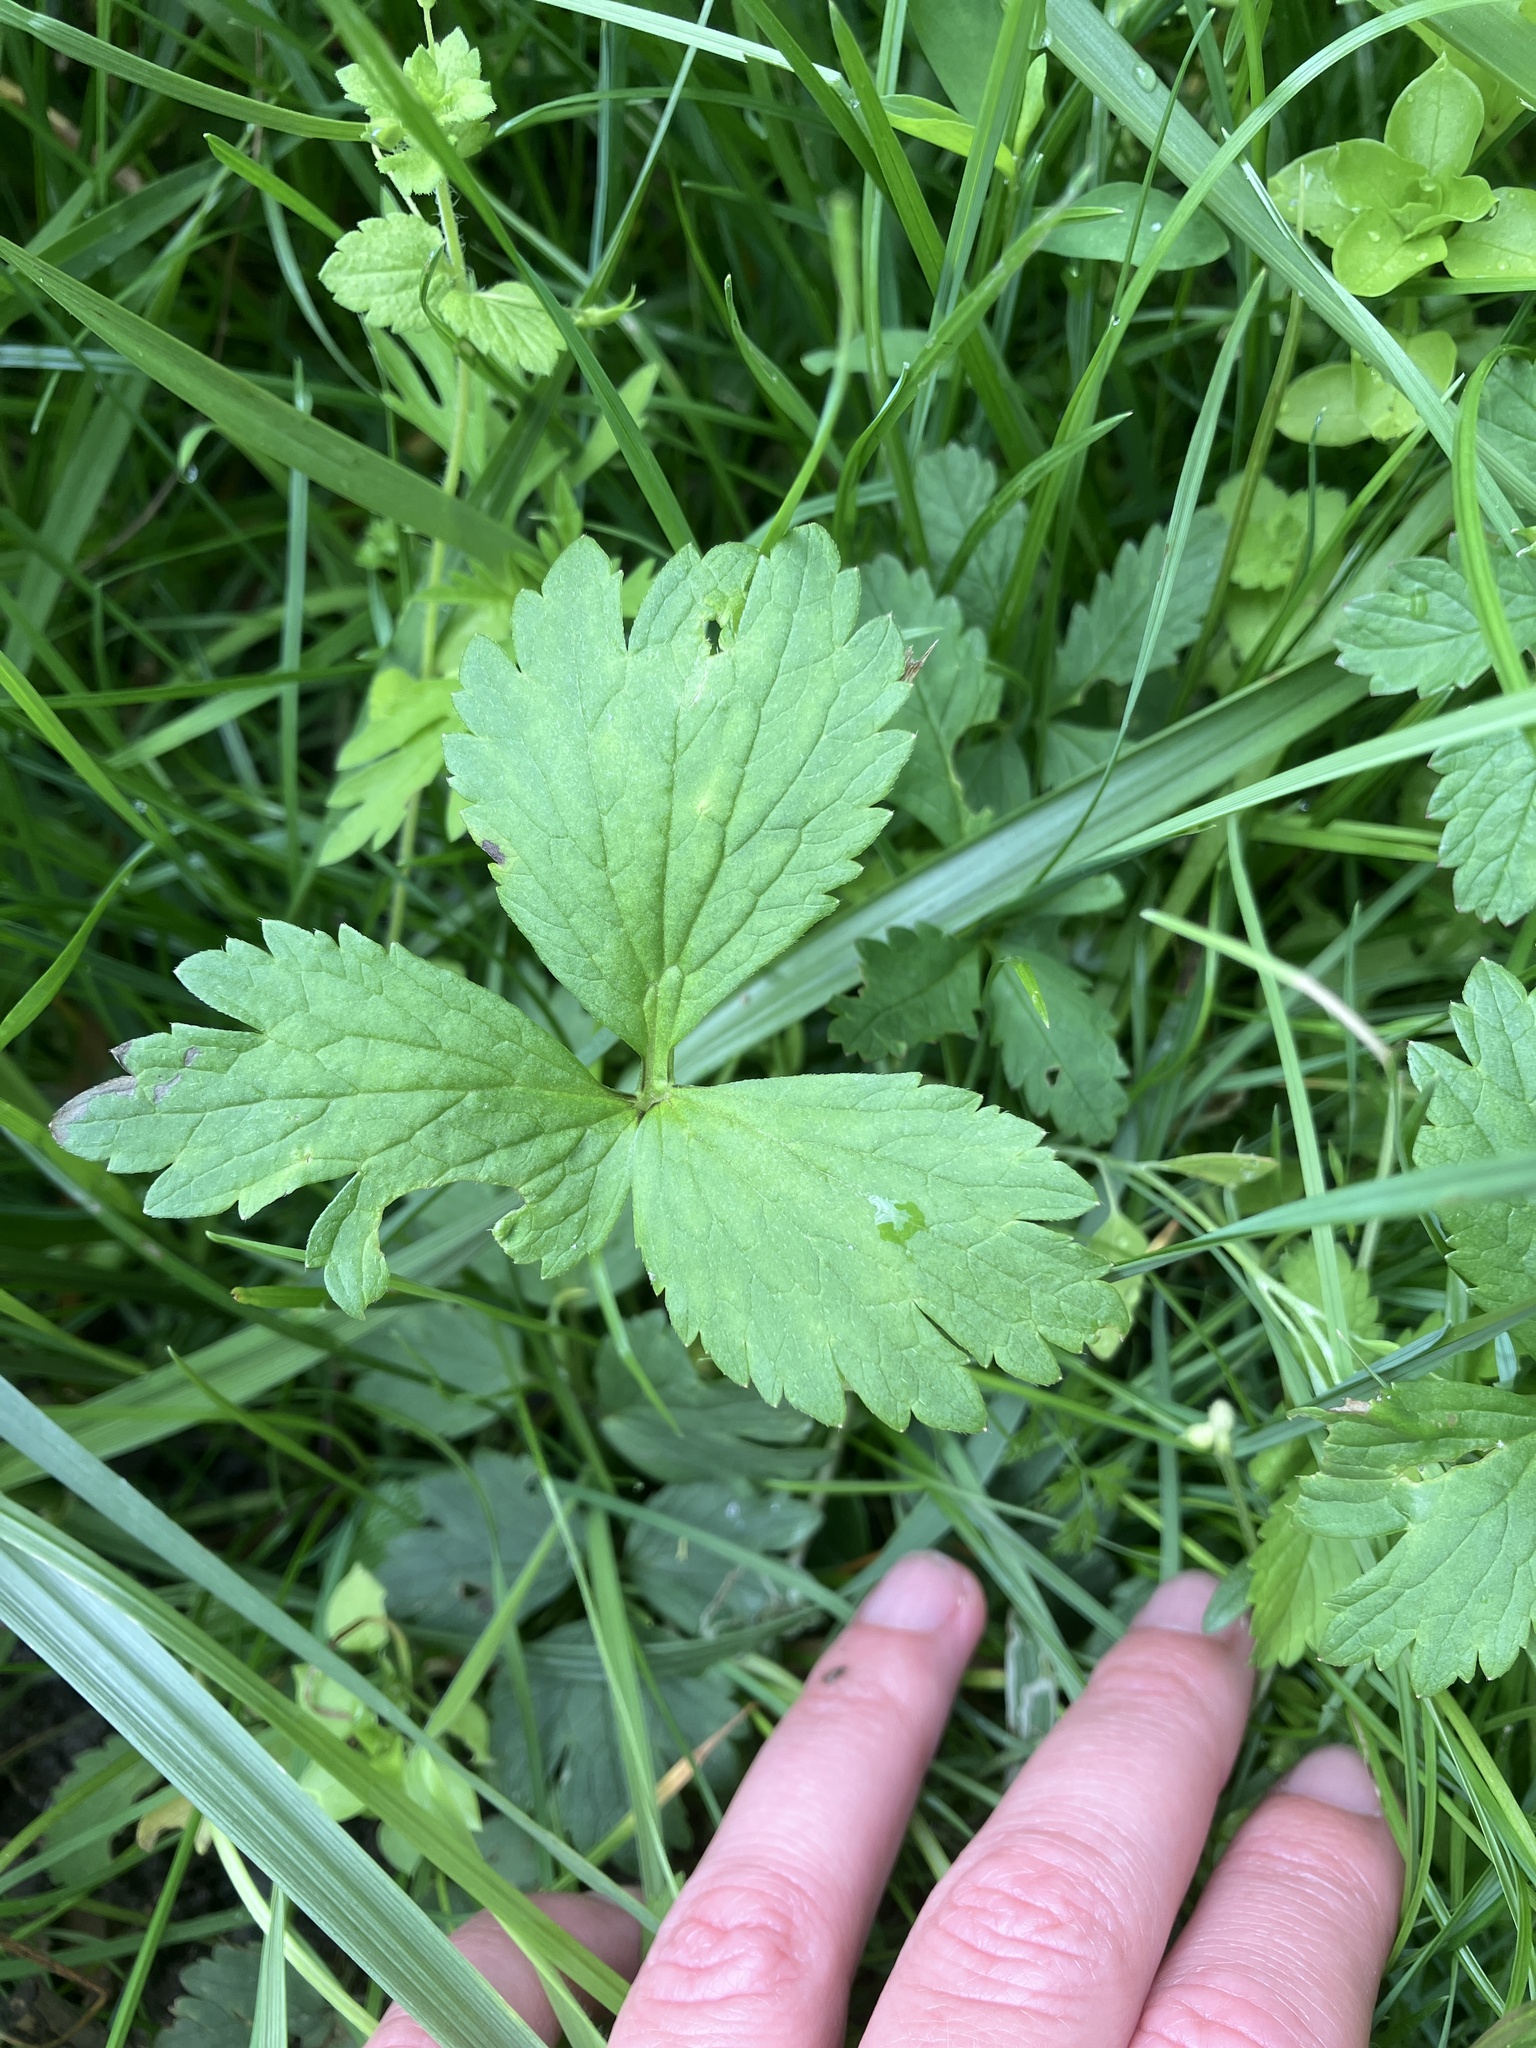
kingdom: Plantae
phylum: Tracheophyta
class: Magnoliopsida
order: Ranunculales
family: Ranunculaceae
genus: Ranunculus
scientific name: Ranunculus repens
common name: Creeping buttercup
